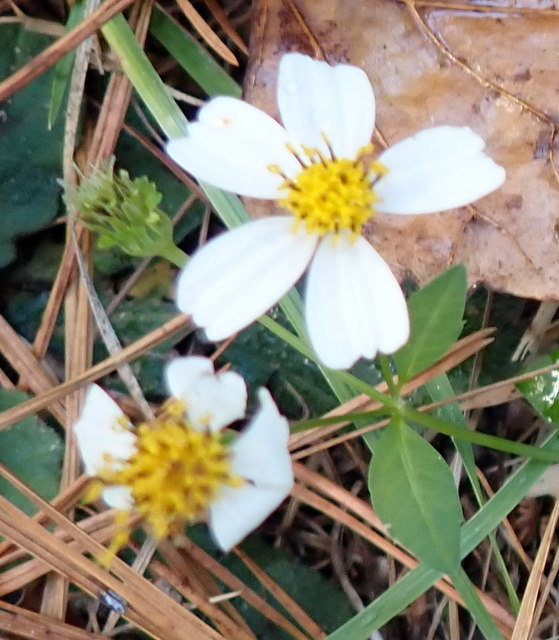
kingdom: Plantae
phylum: Tracheophyta
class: Magnoliopsida
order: Asterales
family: Asteraceae
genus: Bidens
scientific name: Bidens alba
